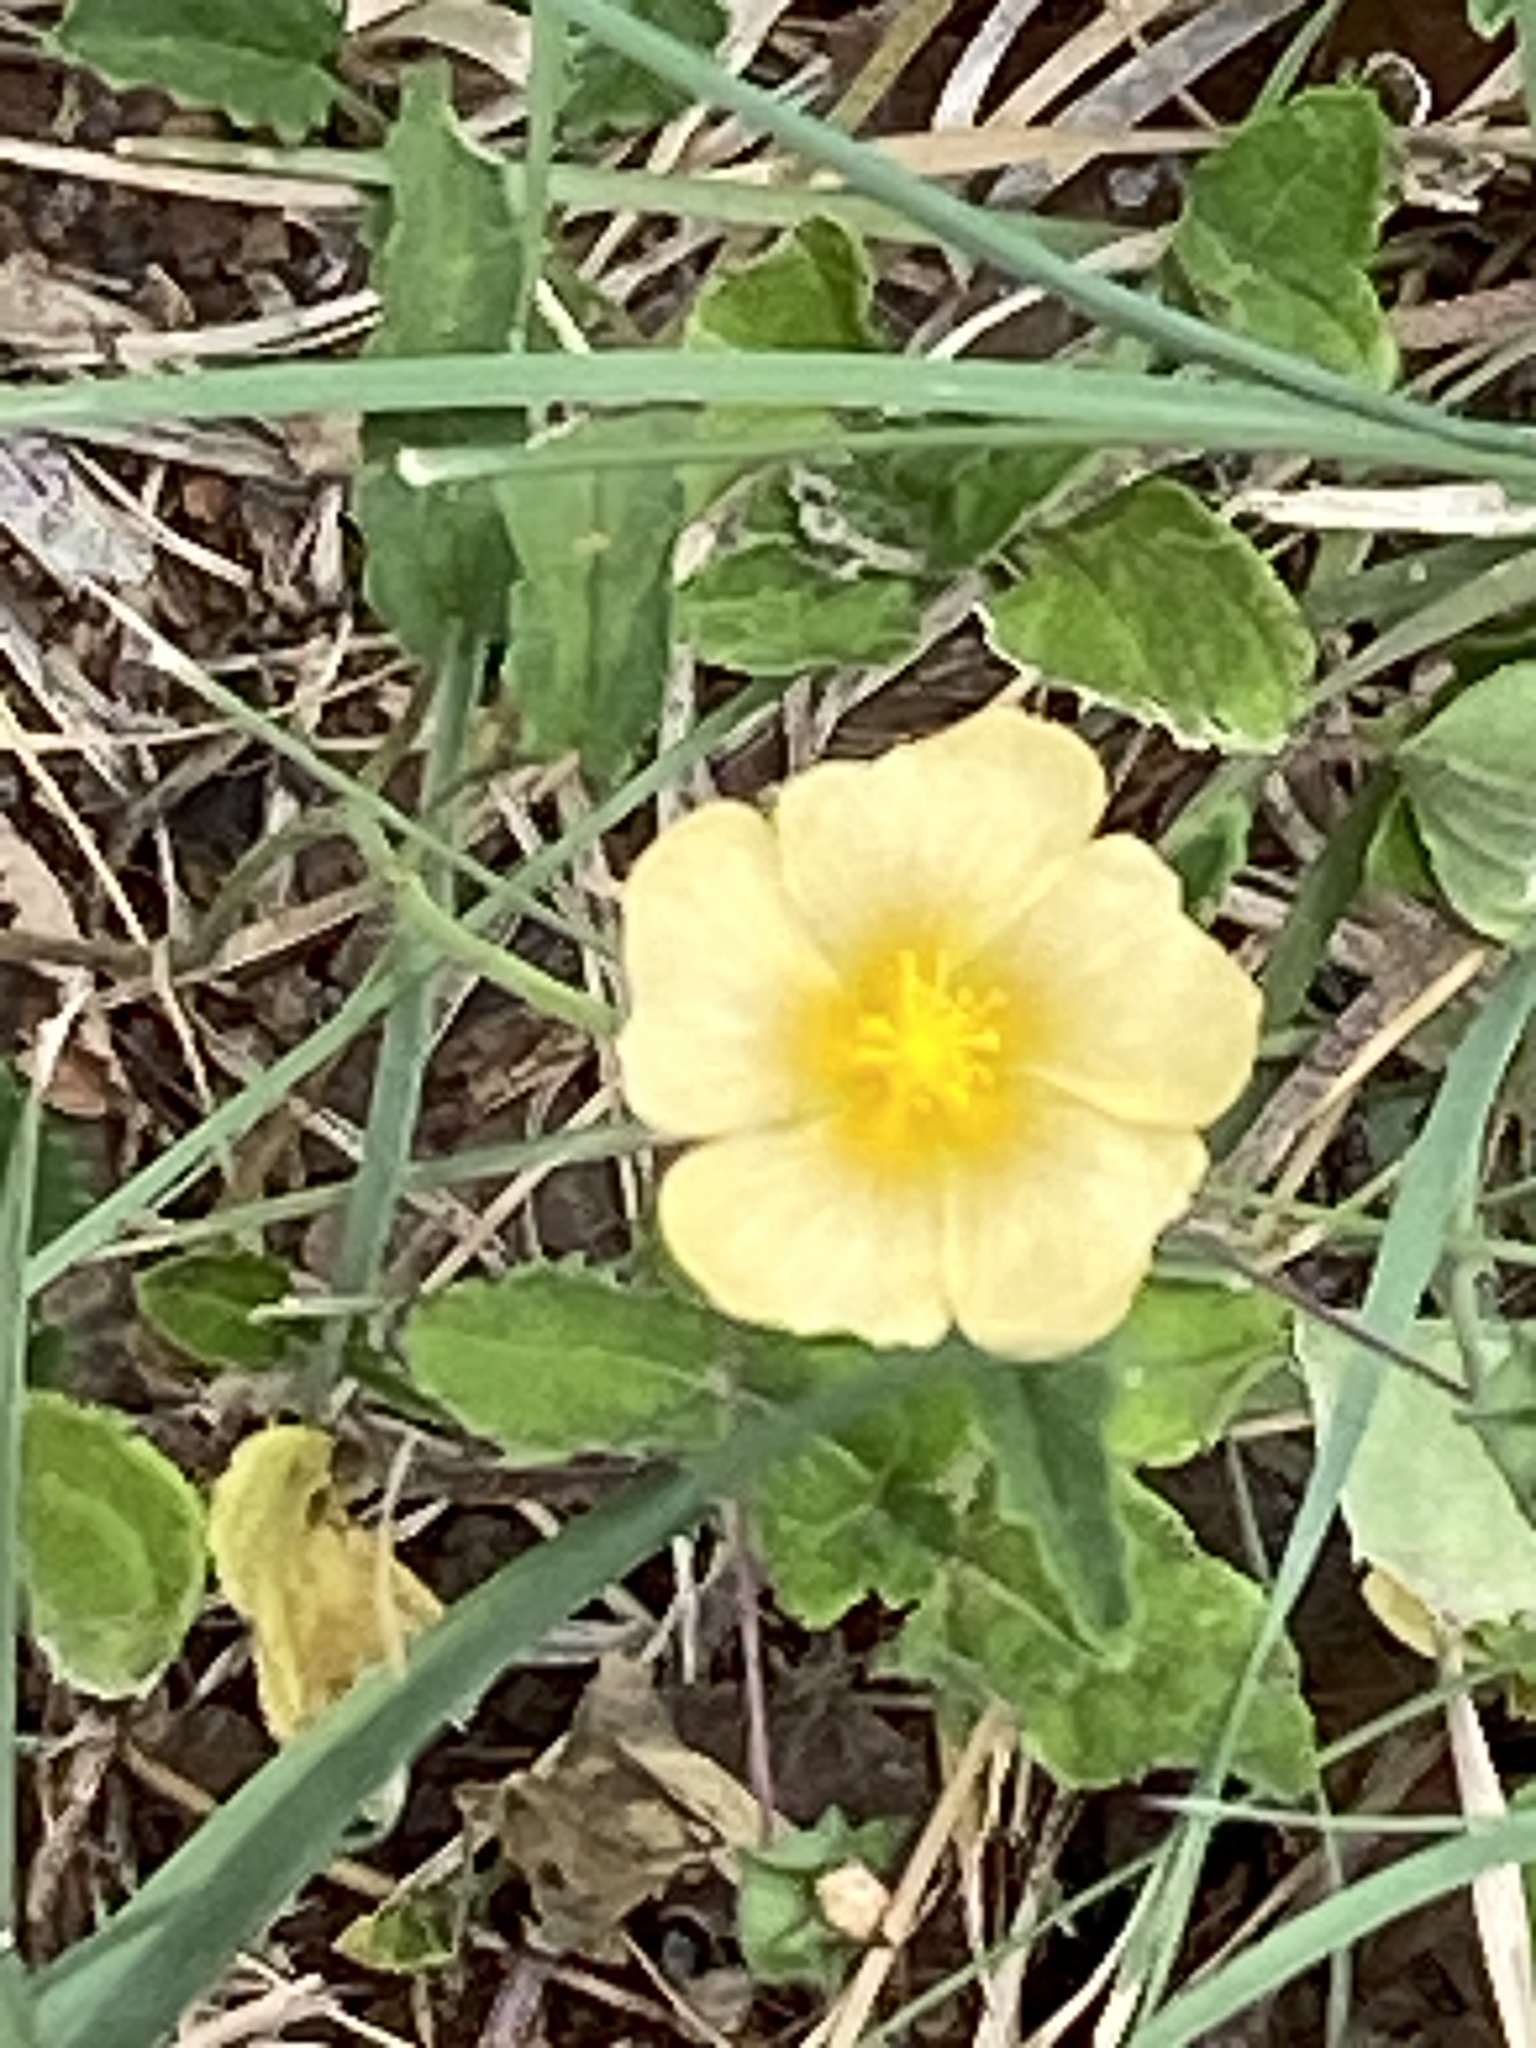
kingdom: Plantae
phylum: Tracheophyta
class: Magnoliopsida
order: Malvales
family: Malvaceae
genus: Sida
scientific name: Sida abutilifolia
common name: Spreading fanpetals
